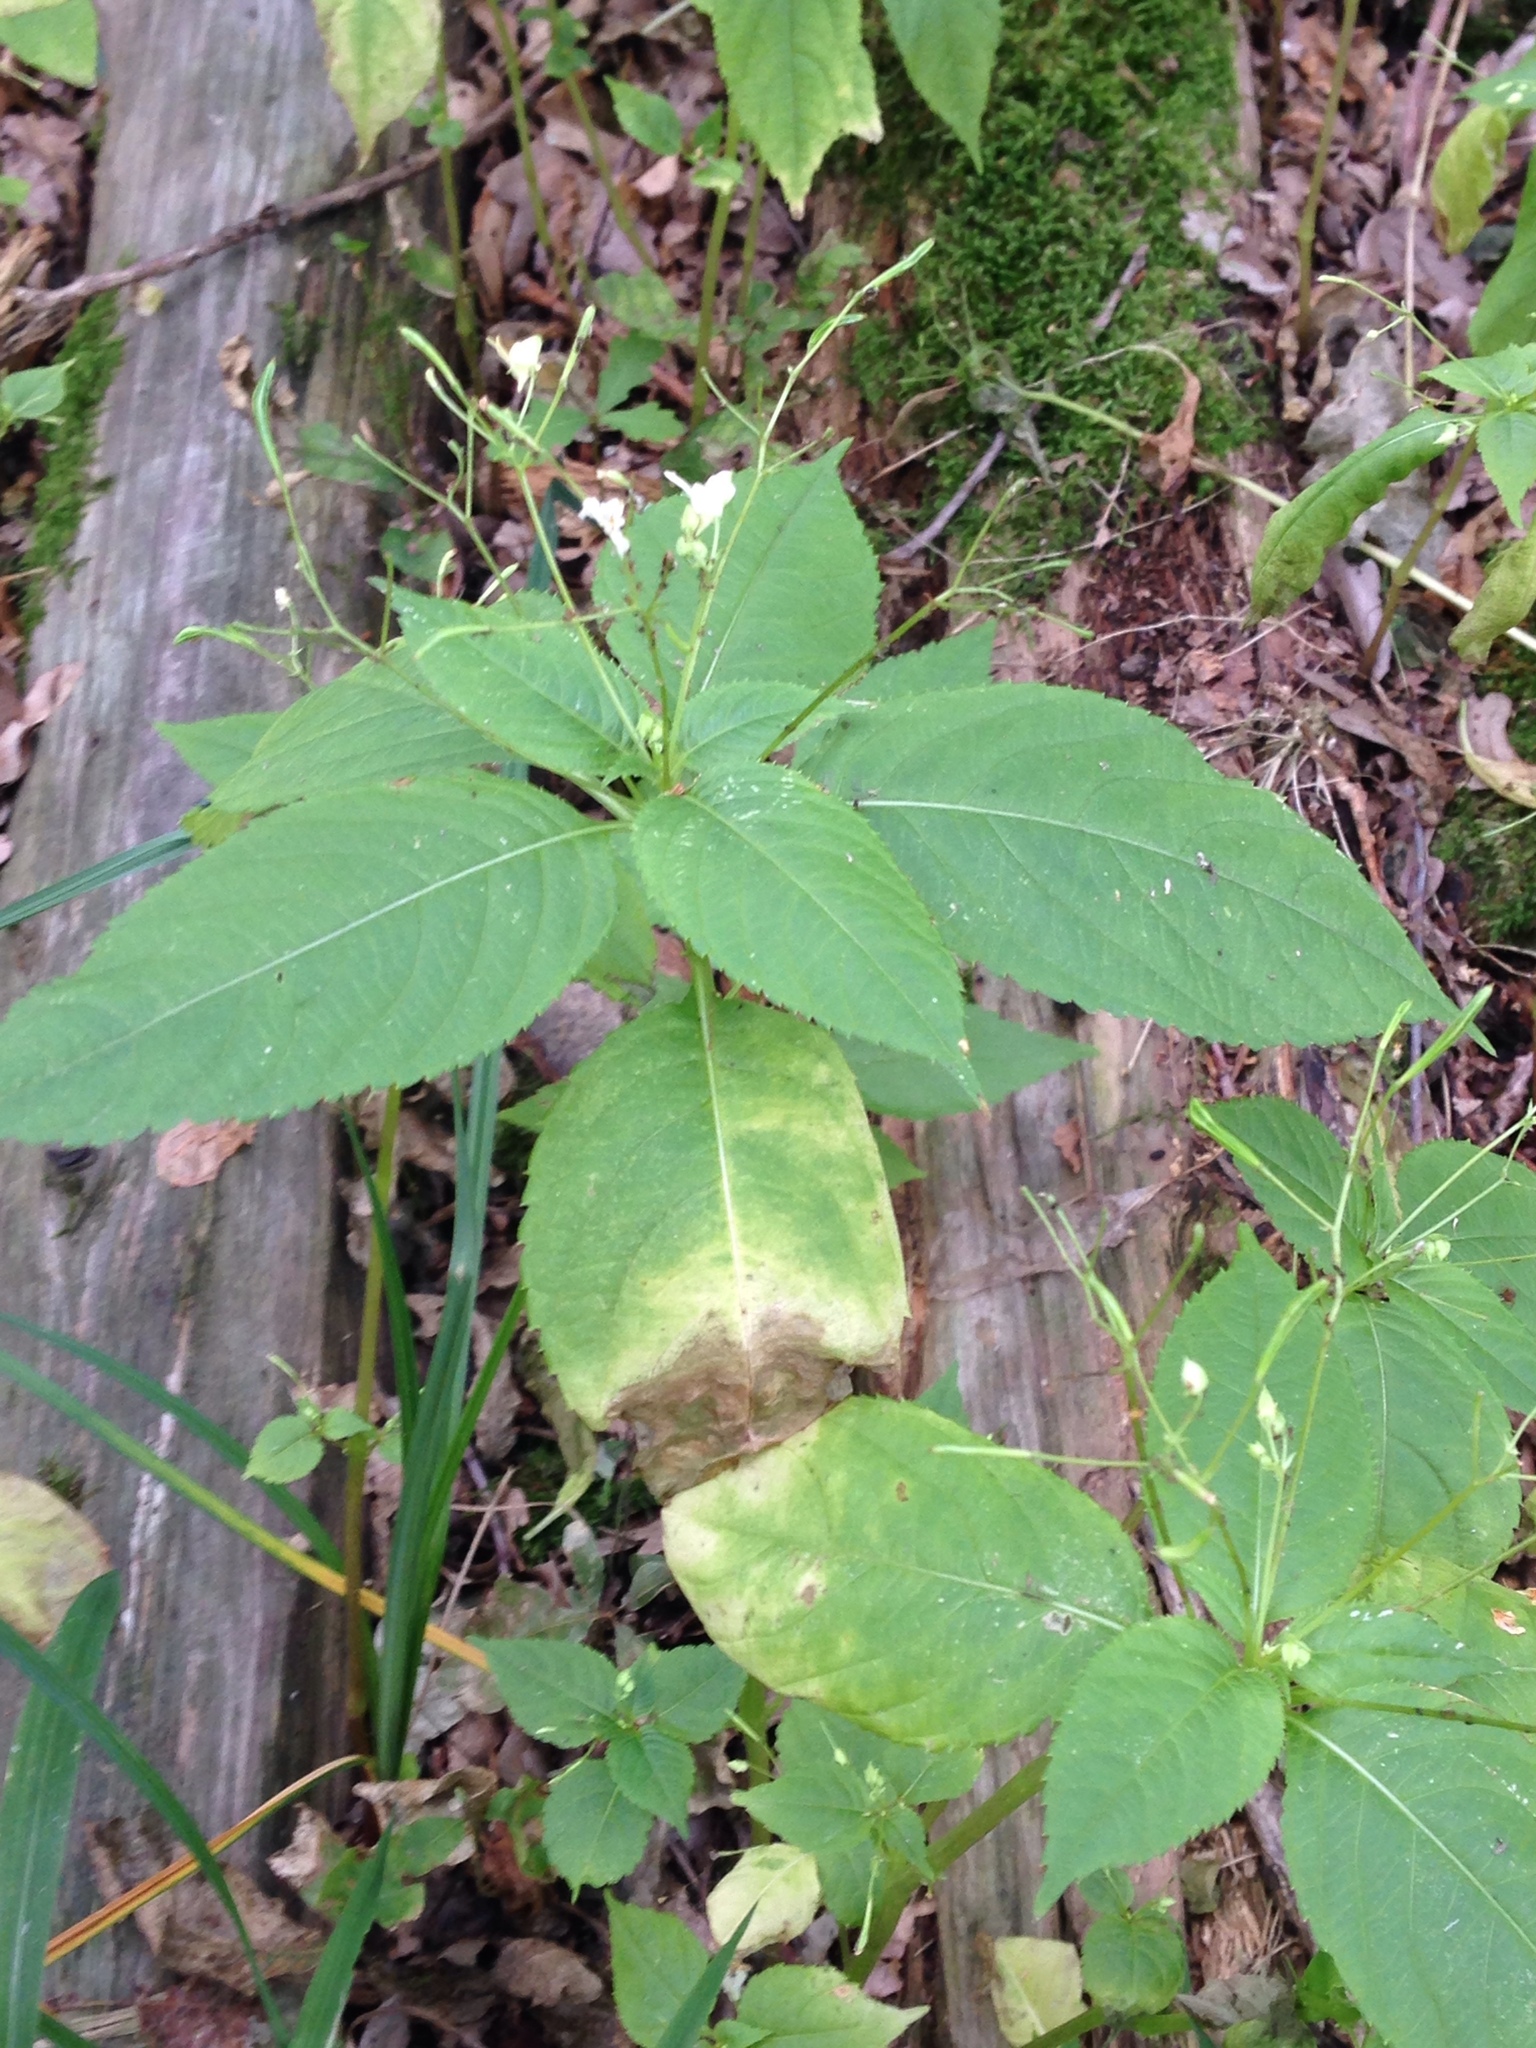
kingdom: Plantae
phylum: Tracheophyta
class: Magnoliopsida
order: Ericales
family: Balsaminaceae
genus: Impatiens
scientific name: Impatiens parviflora
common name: Small balsam
